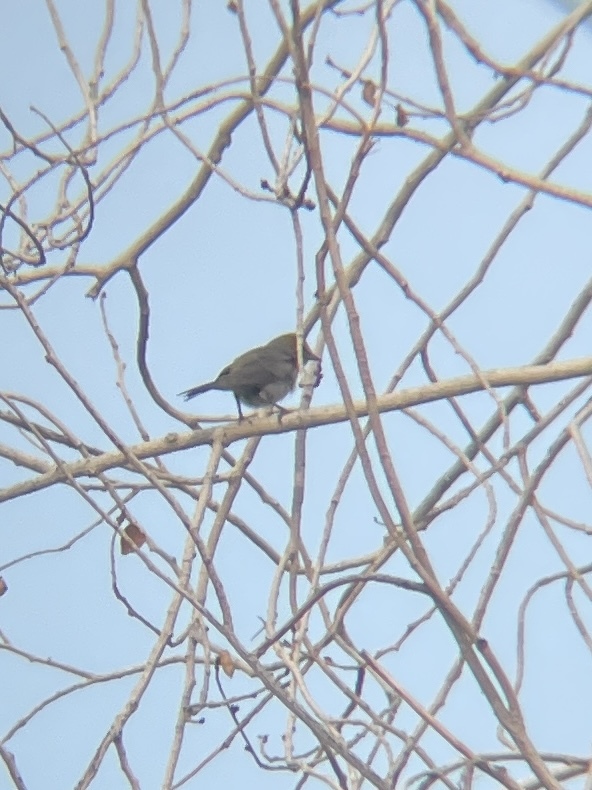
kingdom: Animalia
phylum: Chordata
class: Aves
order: Passeriformes
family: Remizidae
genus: Auriparus
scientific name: Auriparus flaviceps
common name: Verdin
